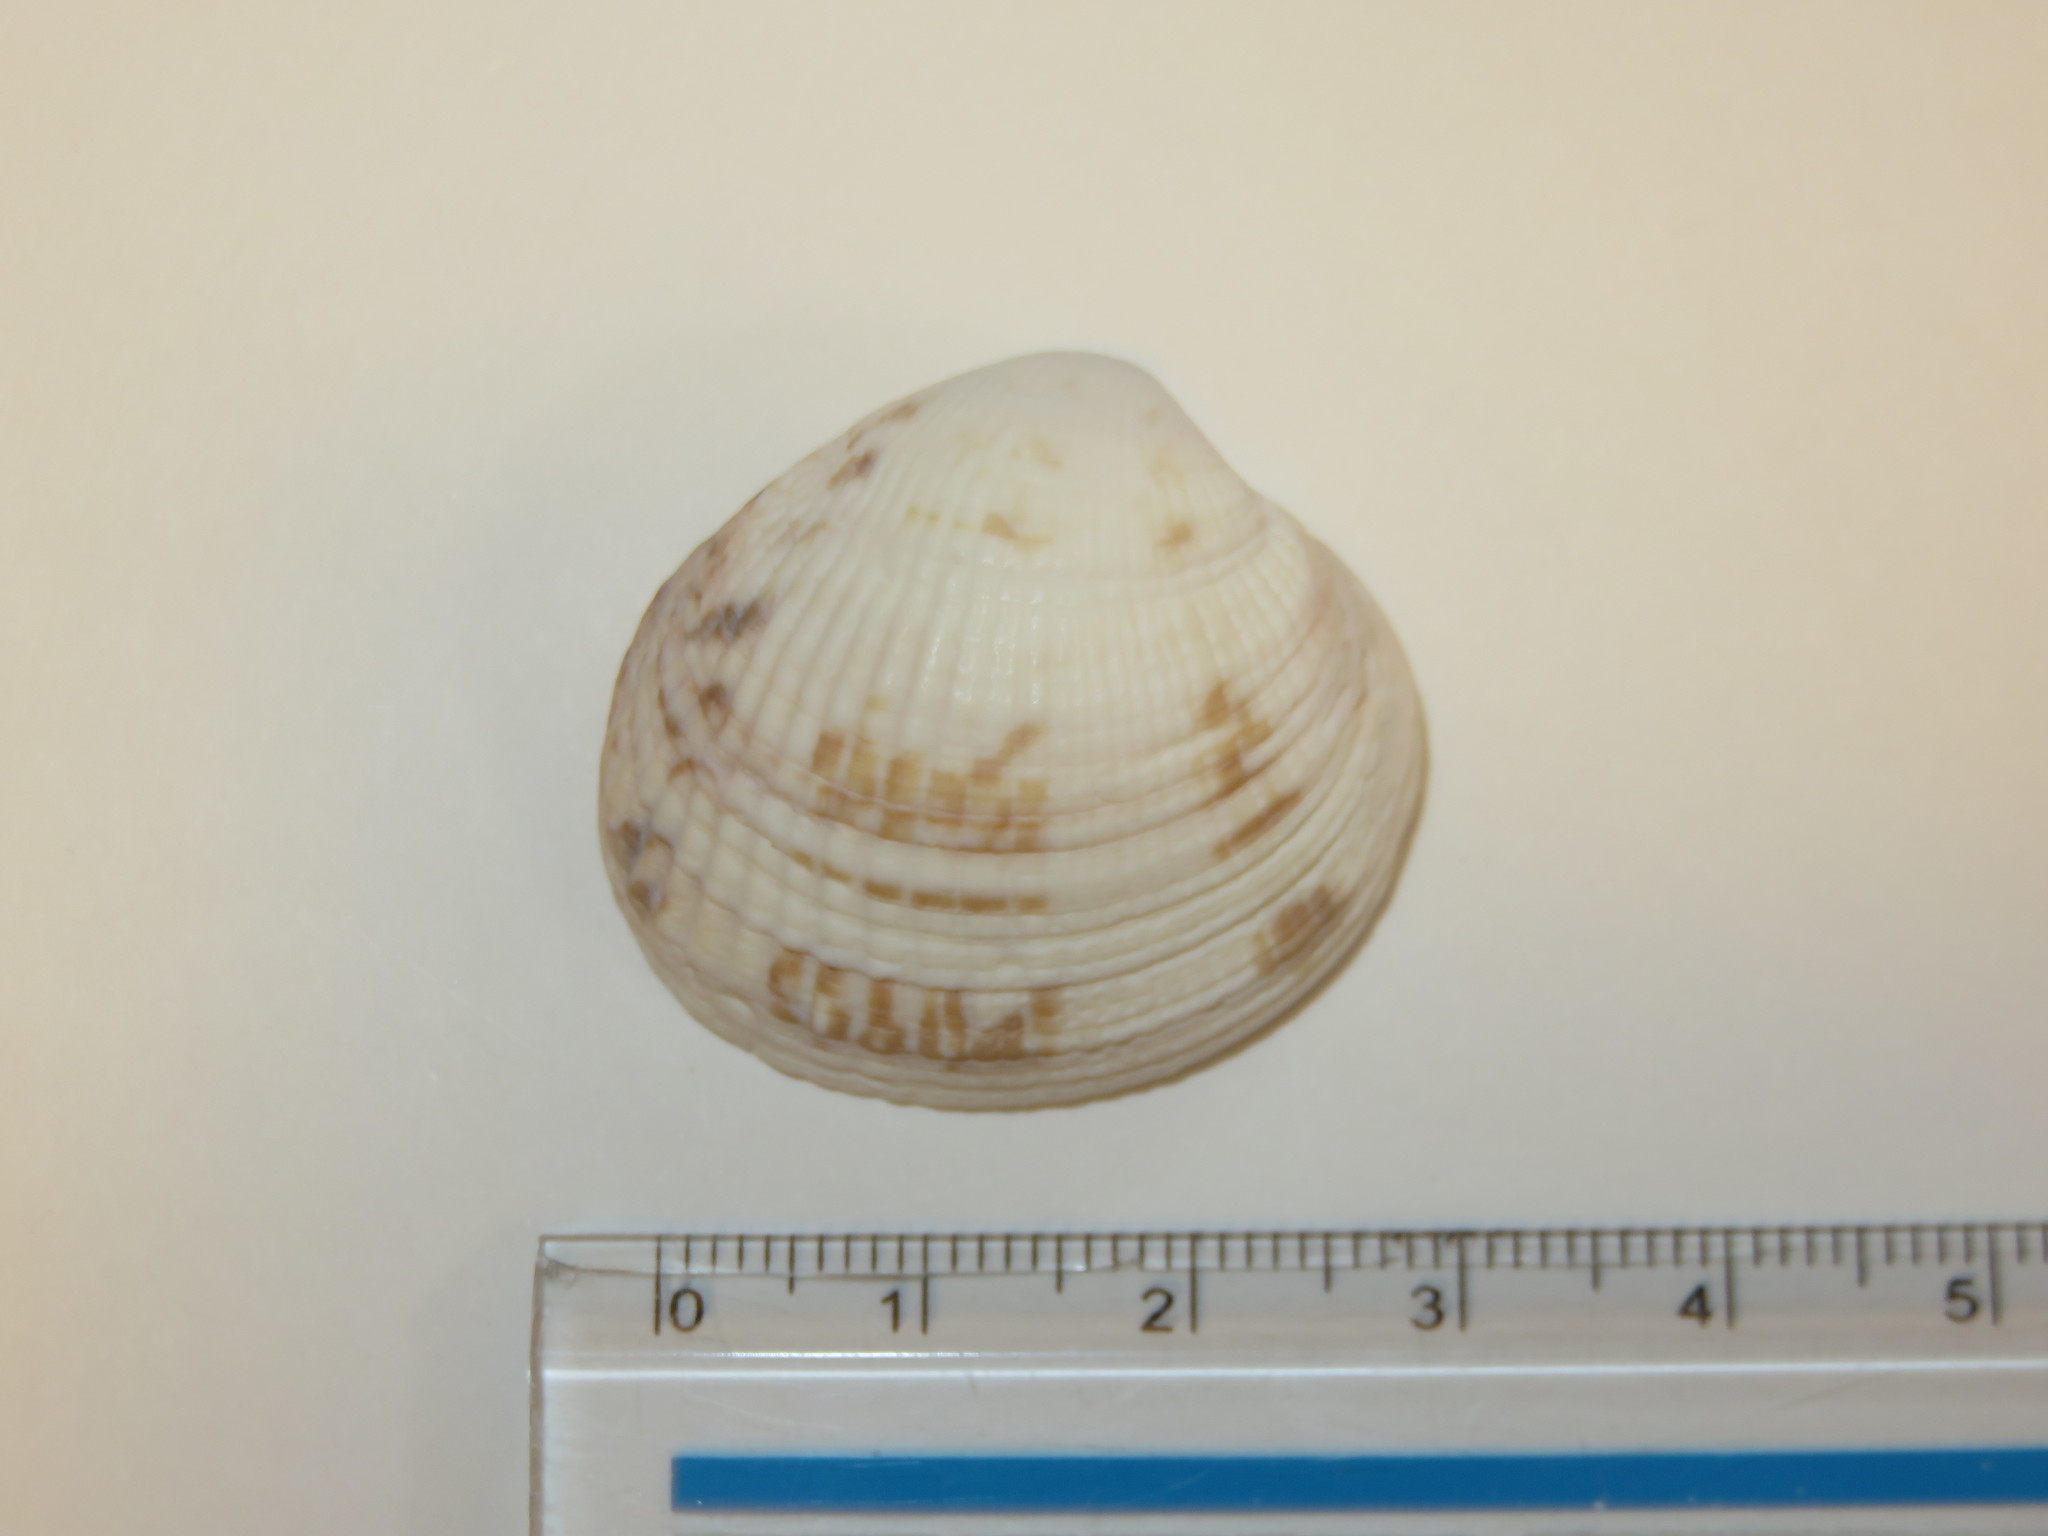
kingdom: Animalia
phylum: Mollusca
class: Bivalvia
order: Venerida
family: Veneridae
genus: Leukoma
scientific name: Leukoma jedoensis
